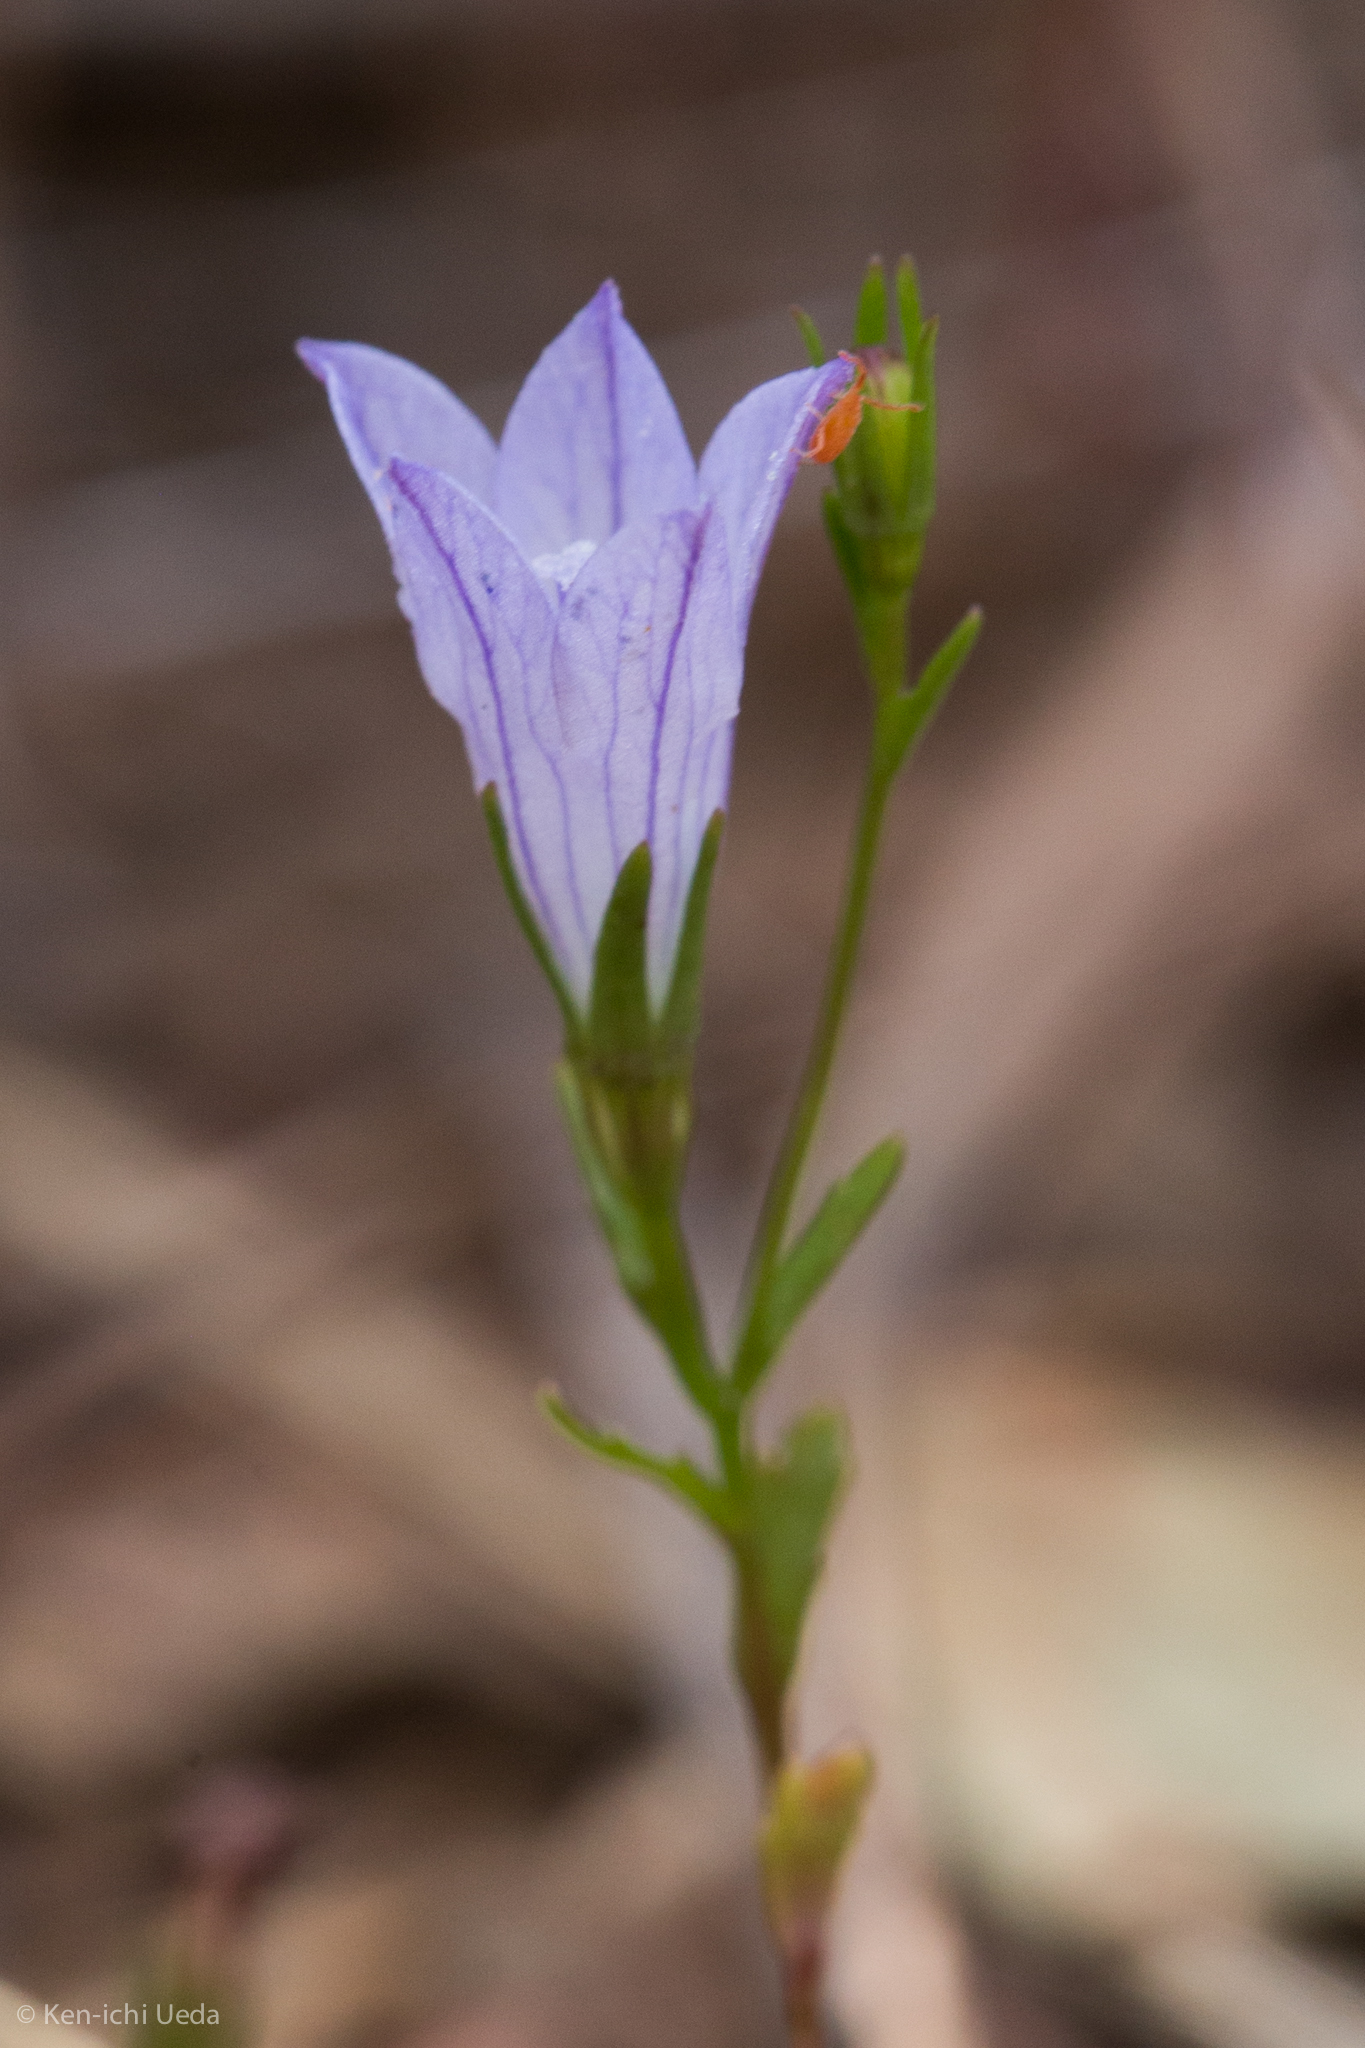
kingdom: Plantae
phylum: Tracheophyta
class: Magnoliopsida
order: Asterales
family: Campanulaceae
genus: Ravenella
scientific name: Ravenella exigua
